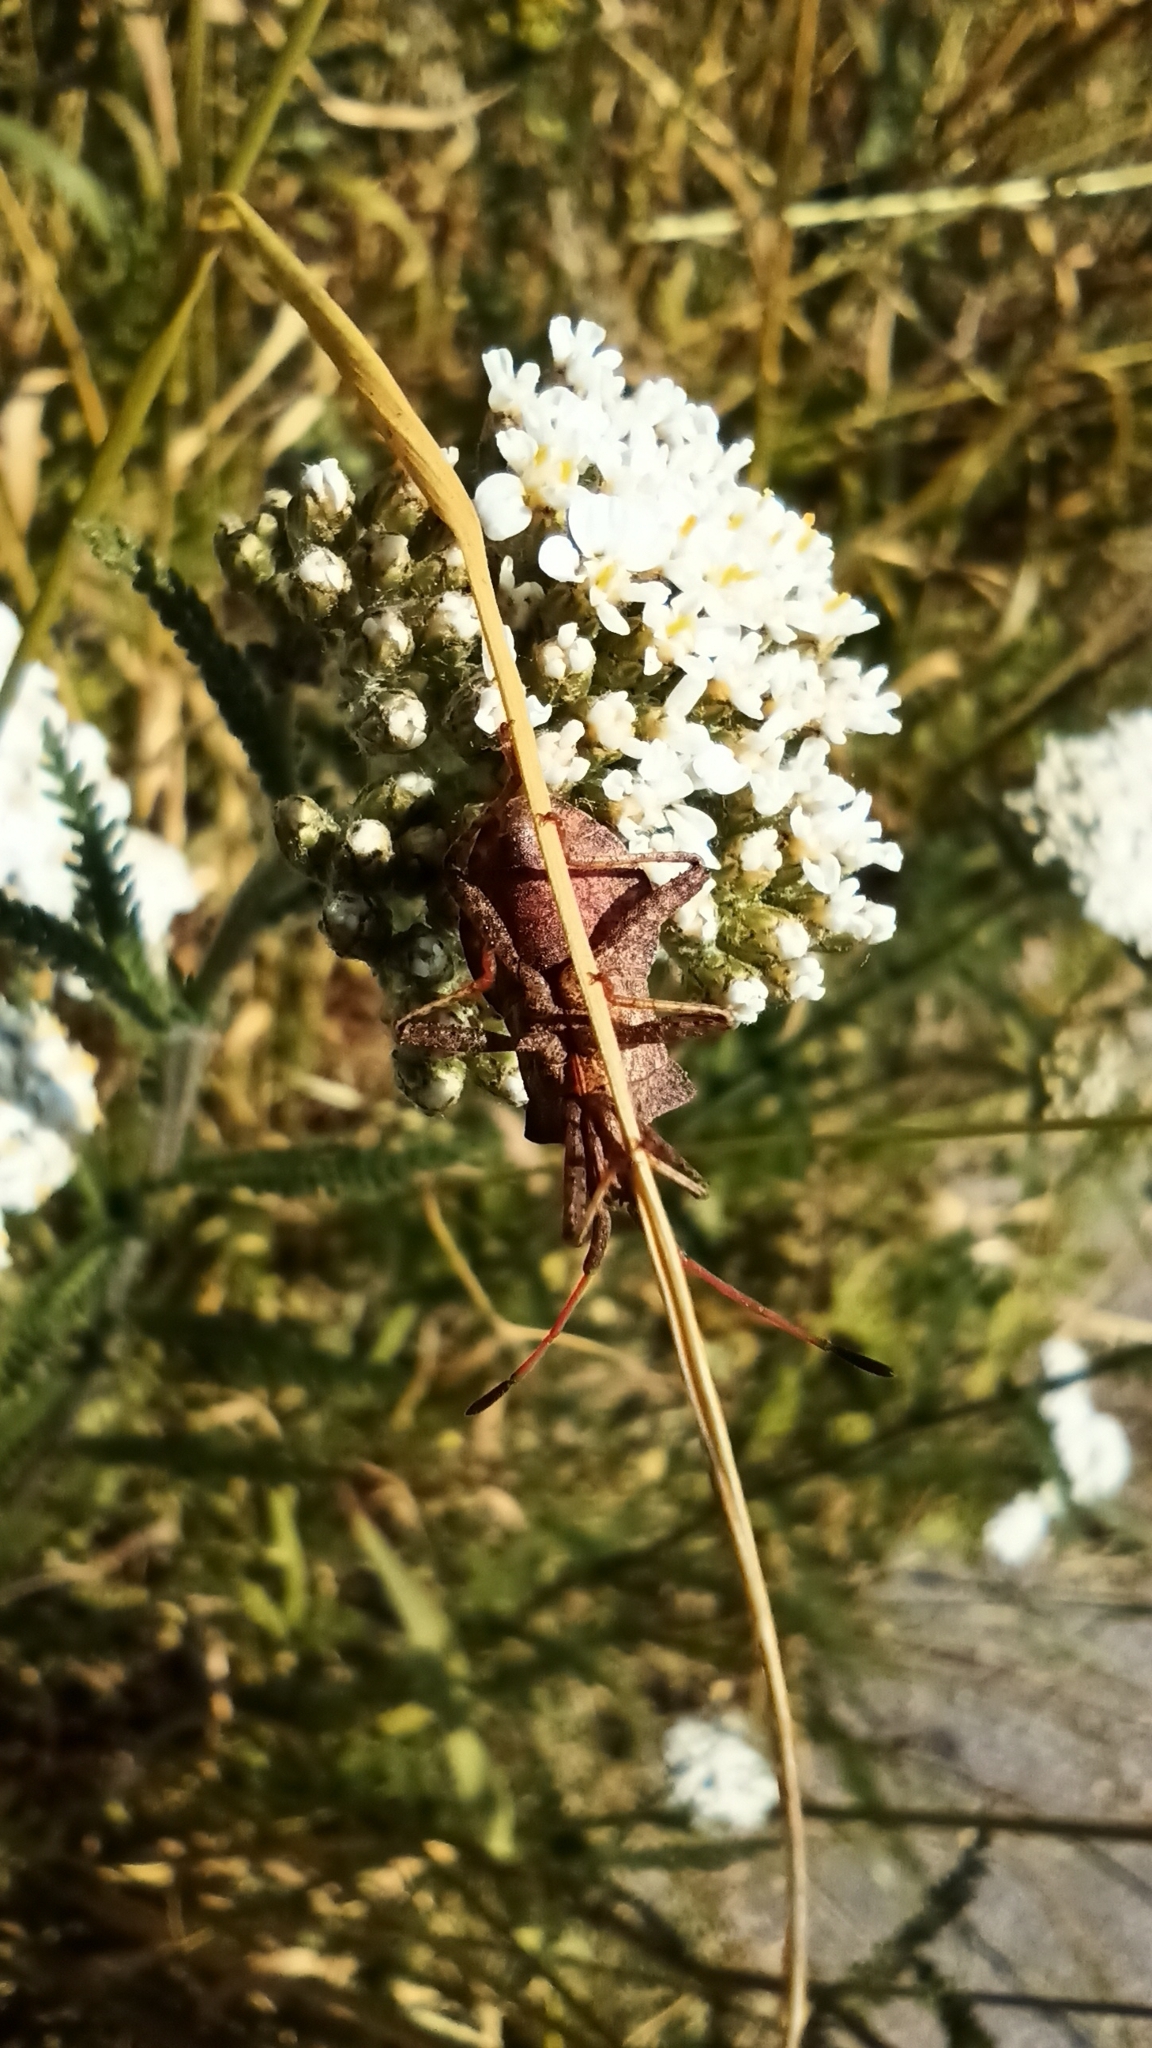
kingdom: Animalia
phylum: Arthropoda
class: Insecta
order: Hemiptera
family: Coreidae
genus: Coreus
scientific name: Coreus marginatus
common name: Dock bug
